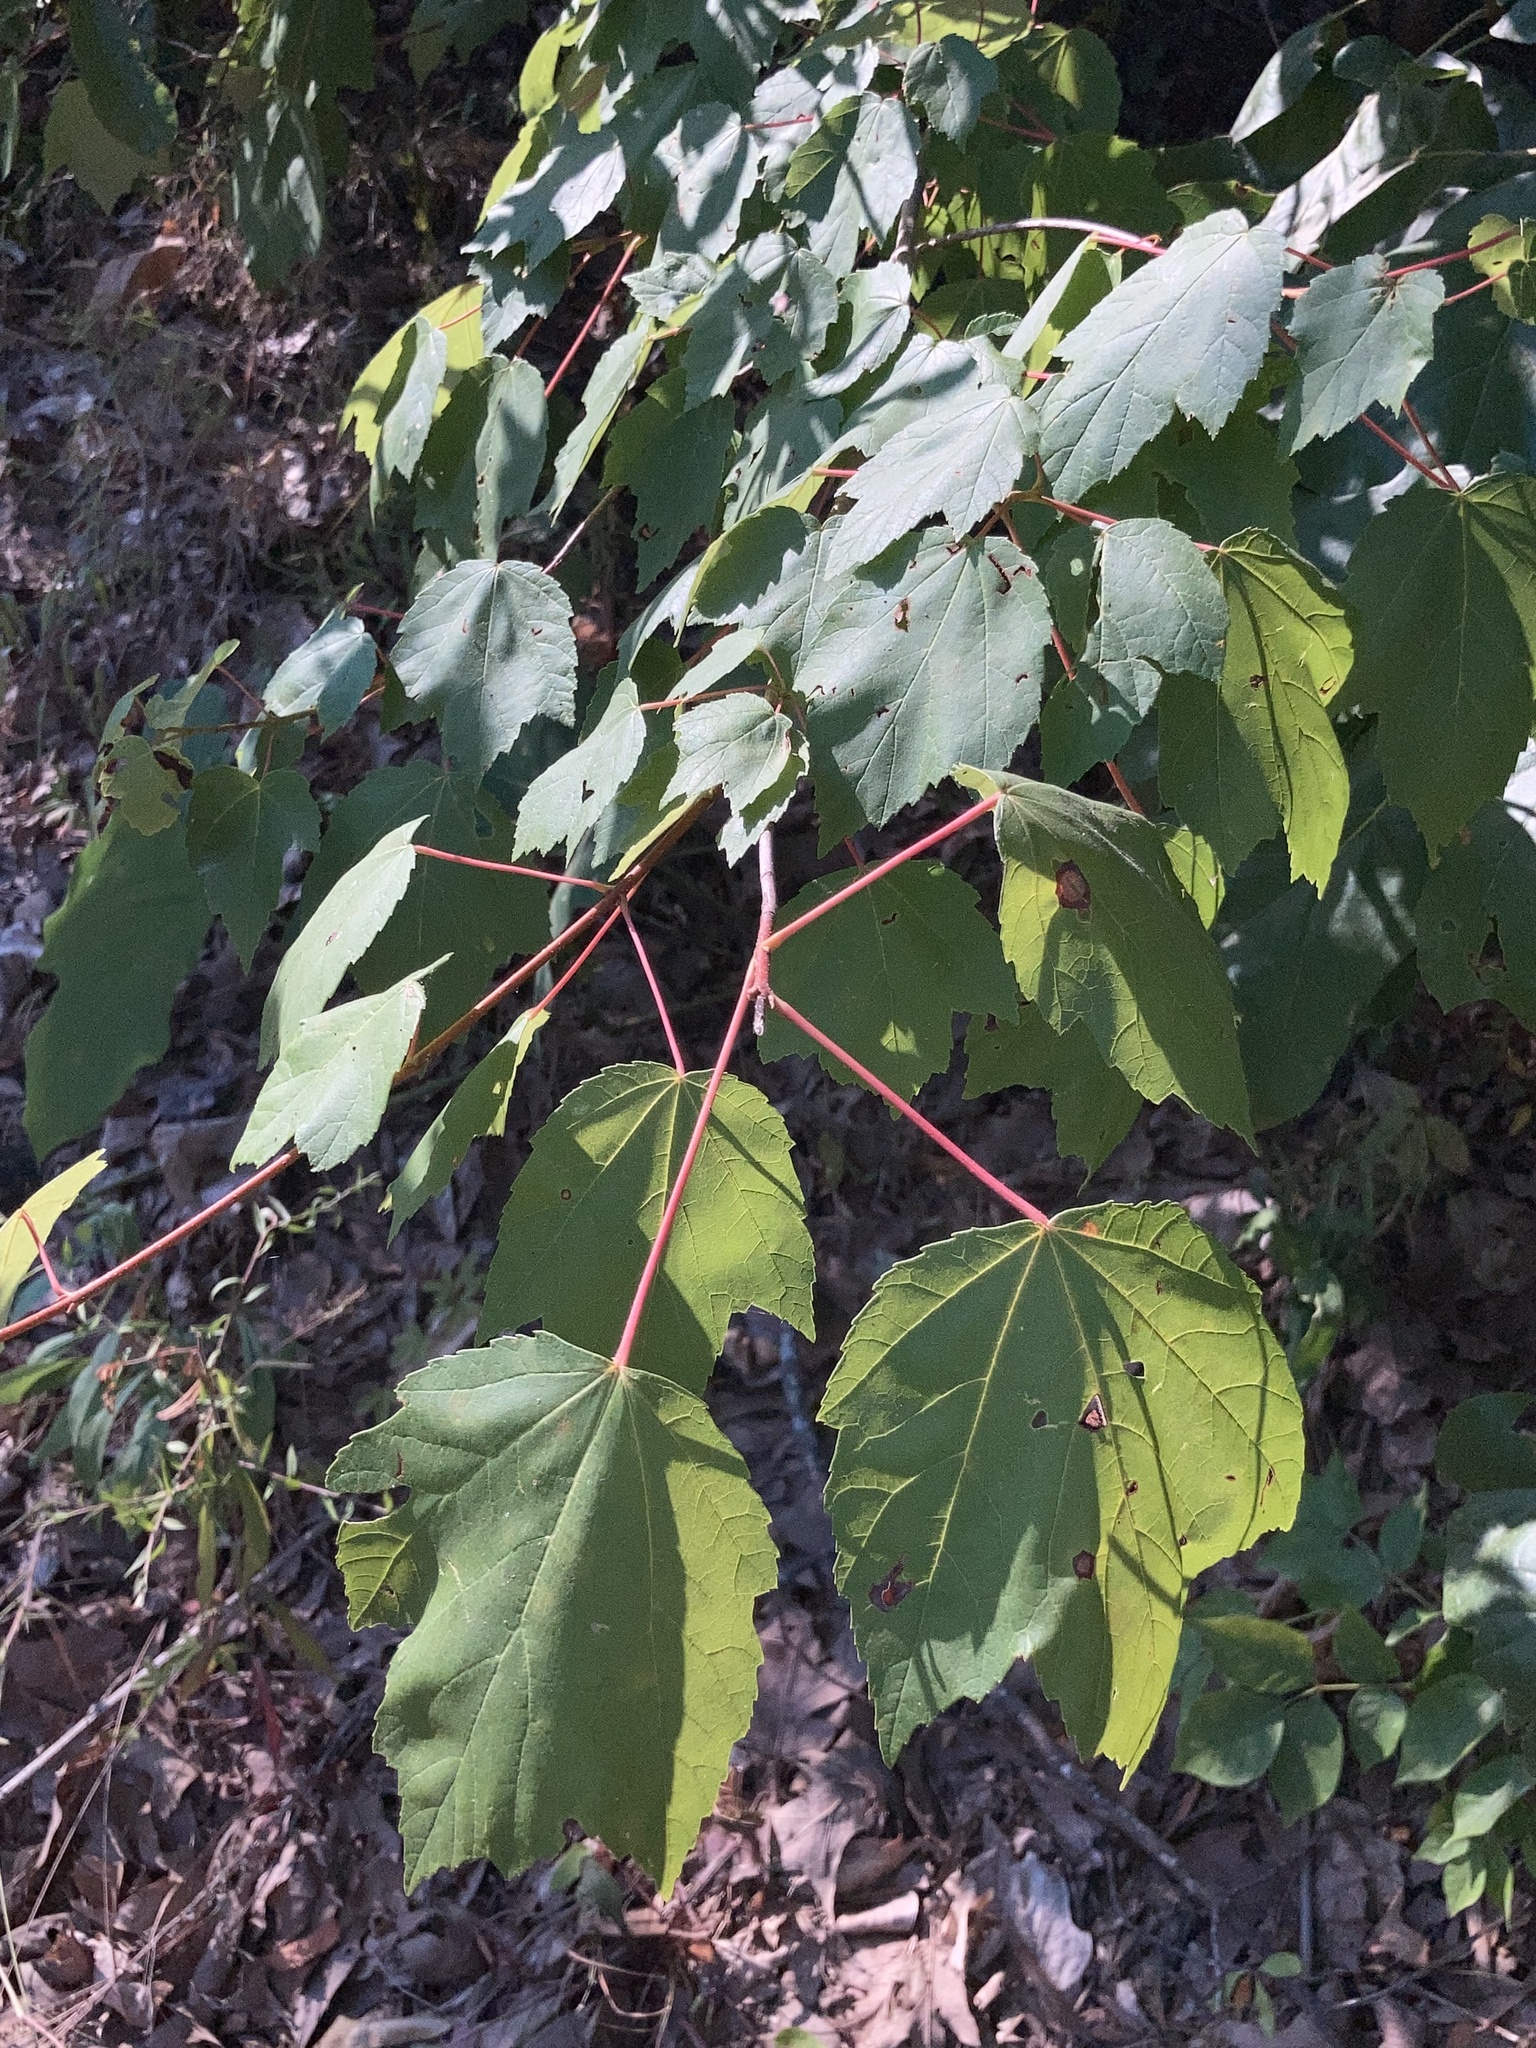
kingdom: Plantae
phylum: Tracheophyta
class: Magnoliopsida
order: Sapindales
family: Sapindaceae
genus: Acer
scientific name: Acer rubrum
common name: Red maple
